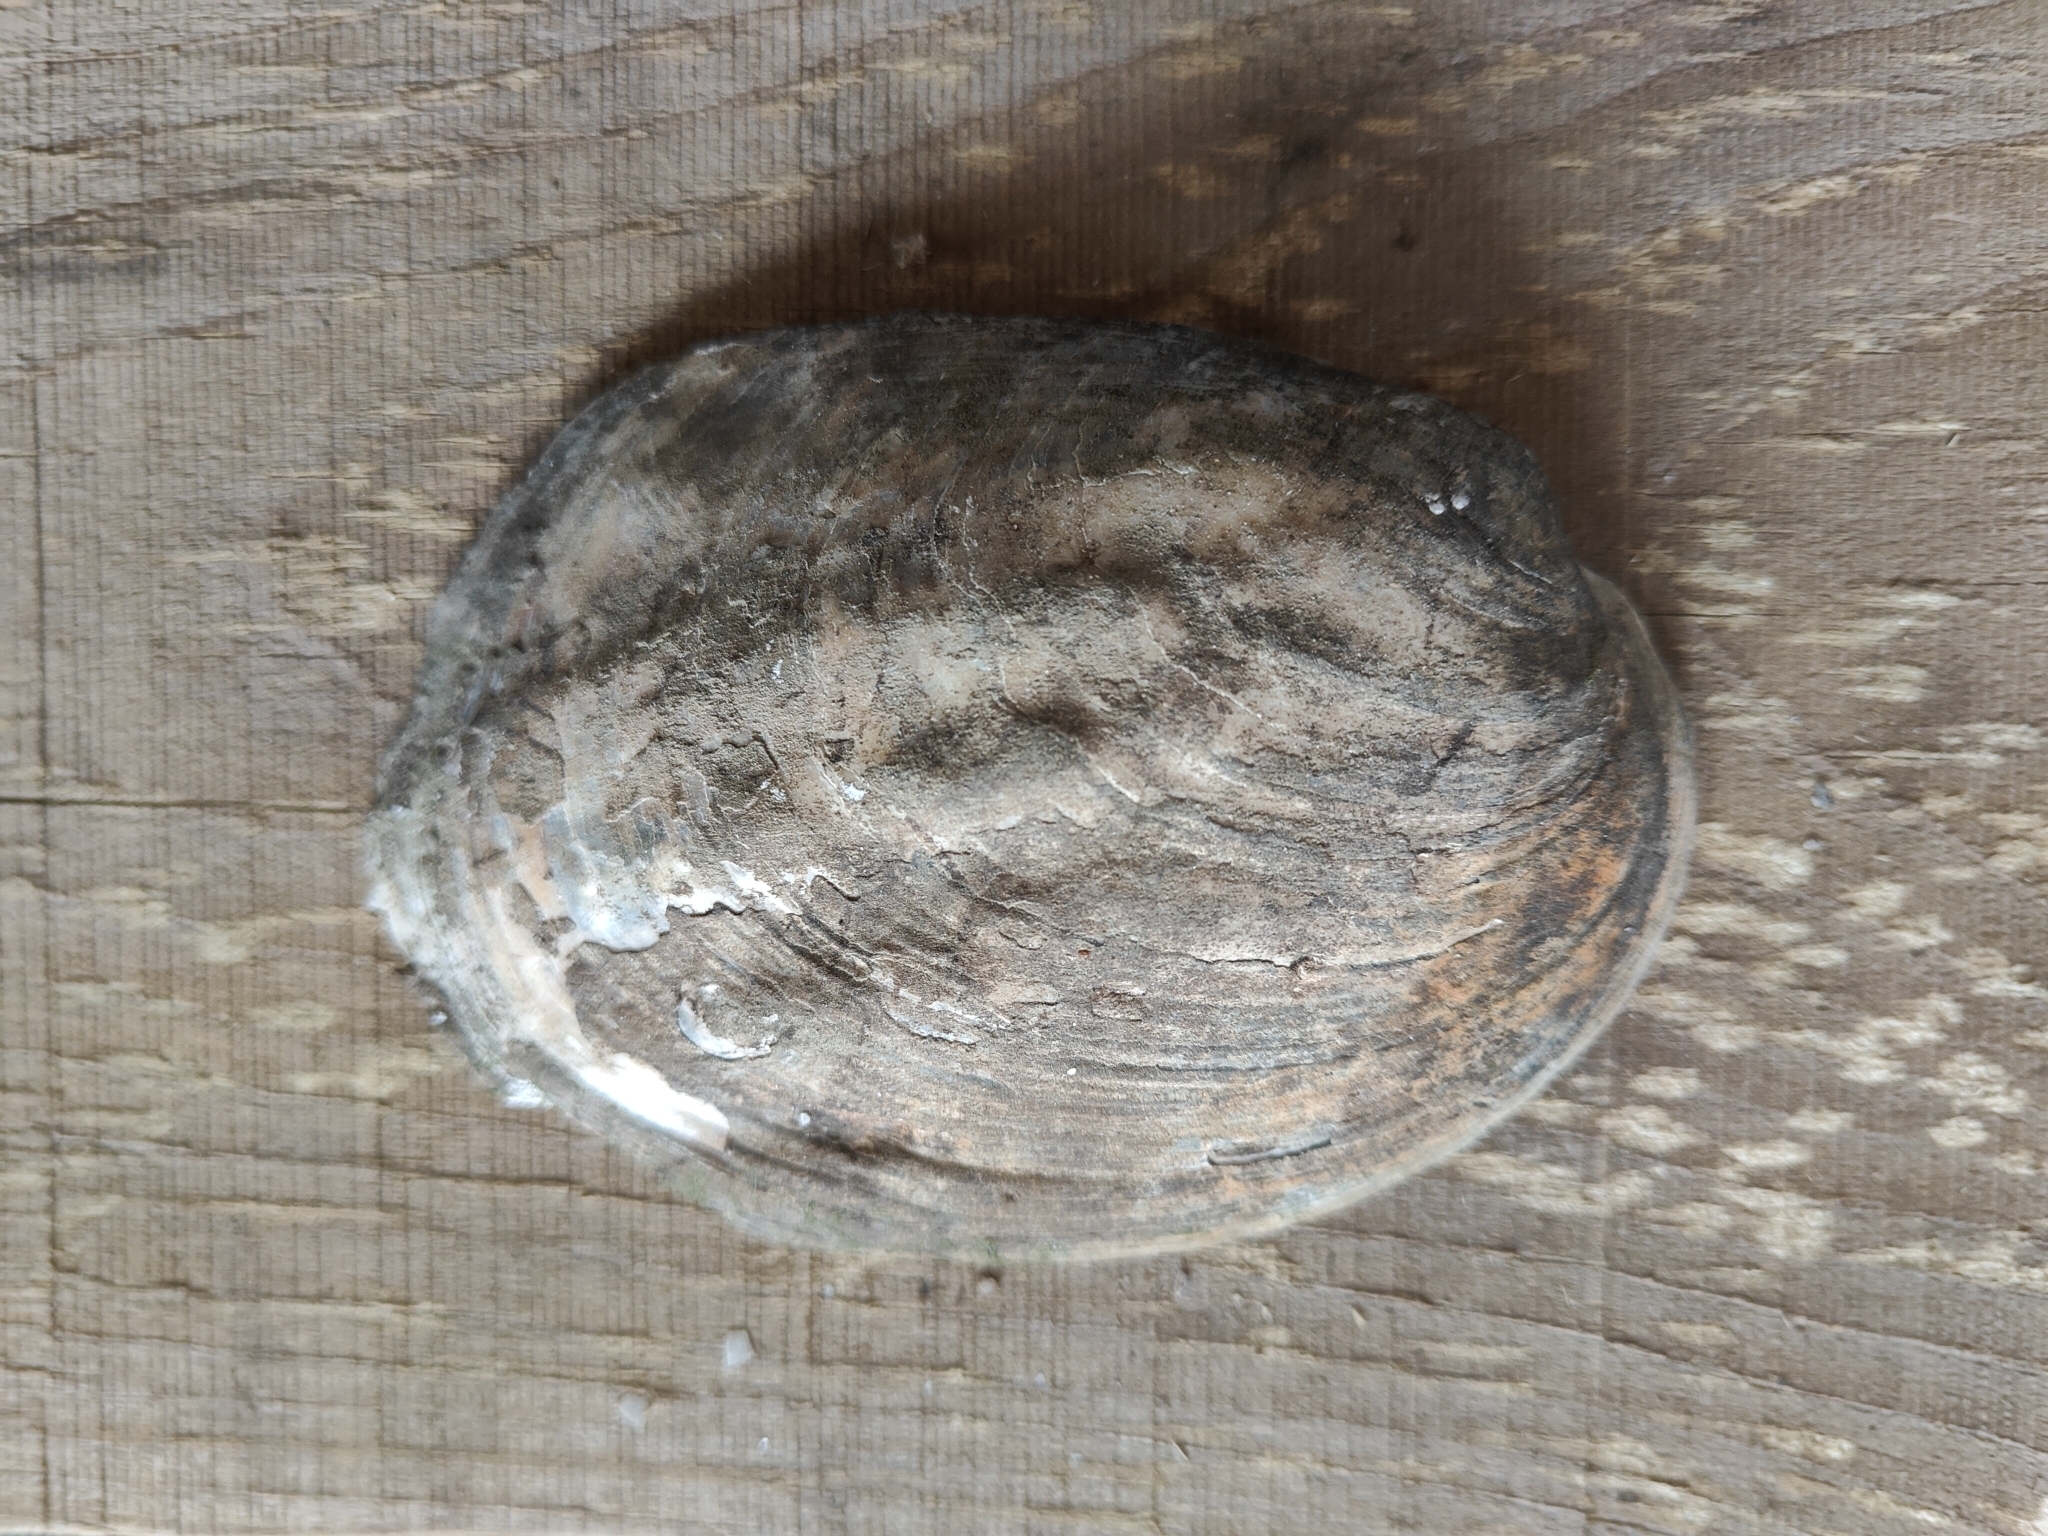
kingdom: Animalia
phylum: Mollusca
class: Bivalvia
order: Unionida
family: Unionidae
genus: Amblema
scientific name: Amblema plicata
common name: Threeridge
